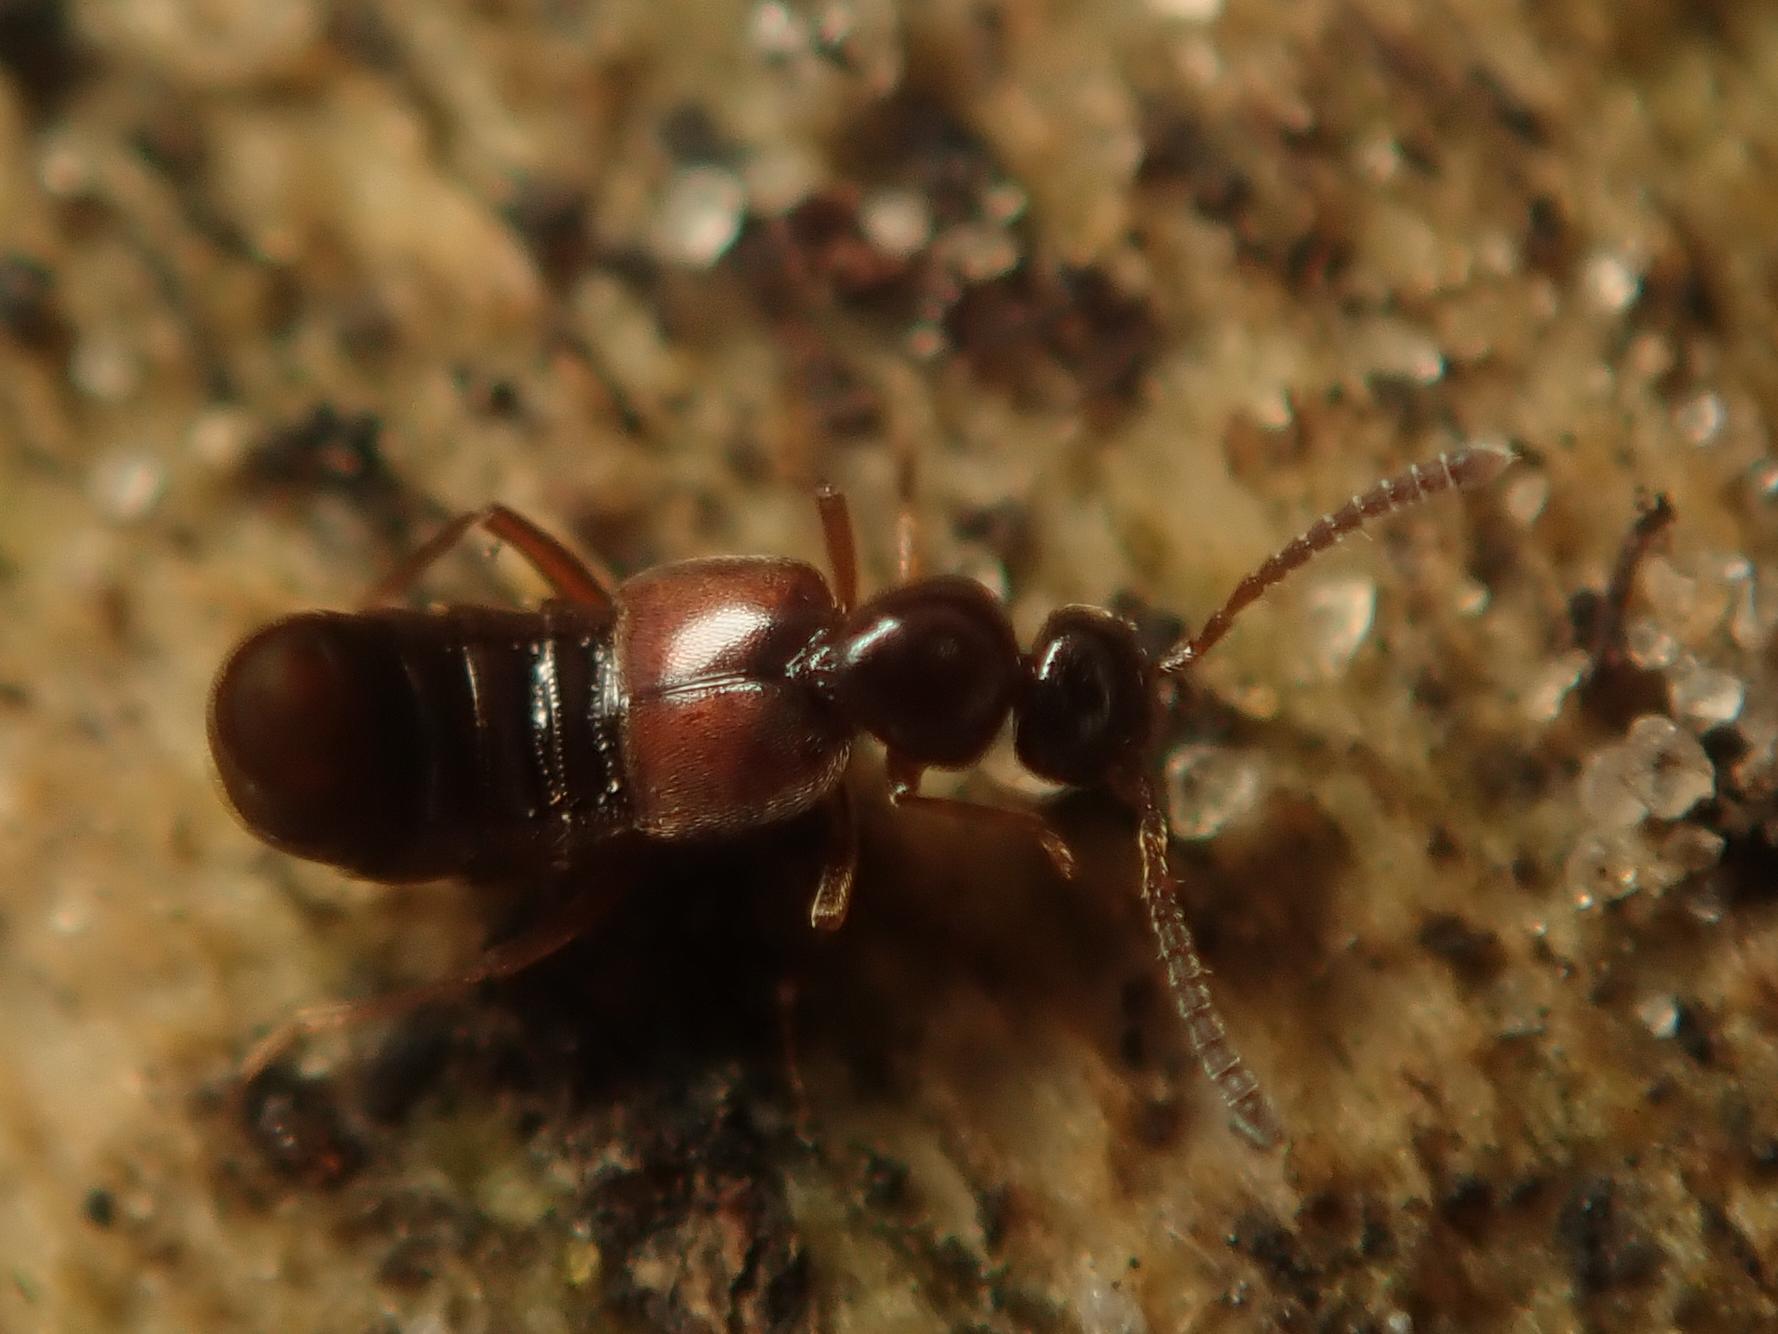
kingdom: Animalia
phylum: Arthropoda
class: Insecta
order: Coleoptera
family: Staphylinidae
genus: Cordalia
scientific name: Cordalia obscura
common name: Rove beetle
